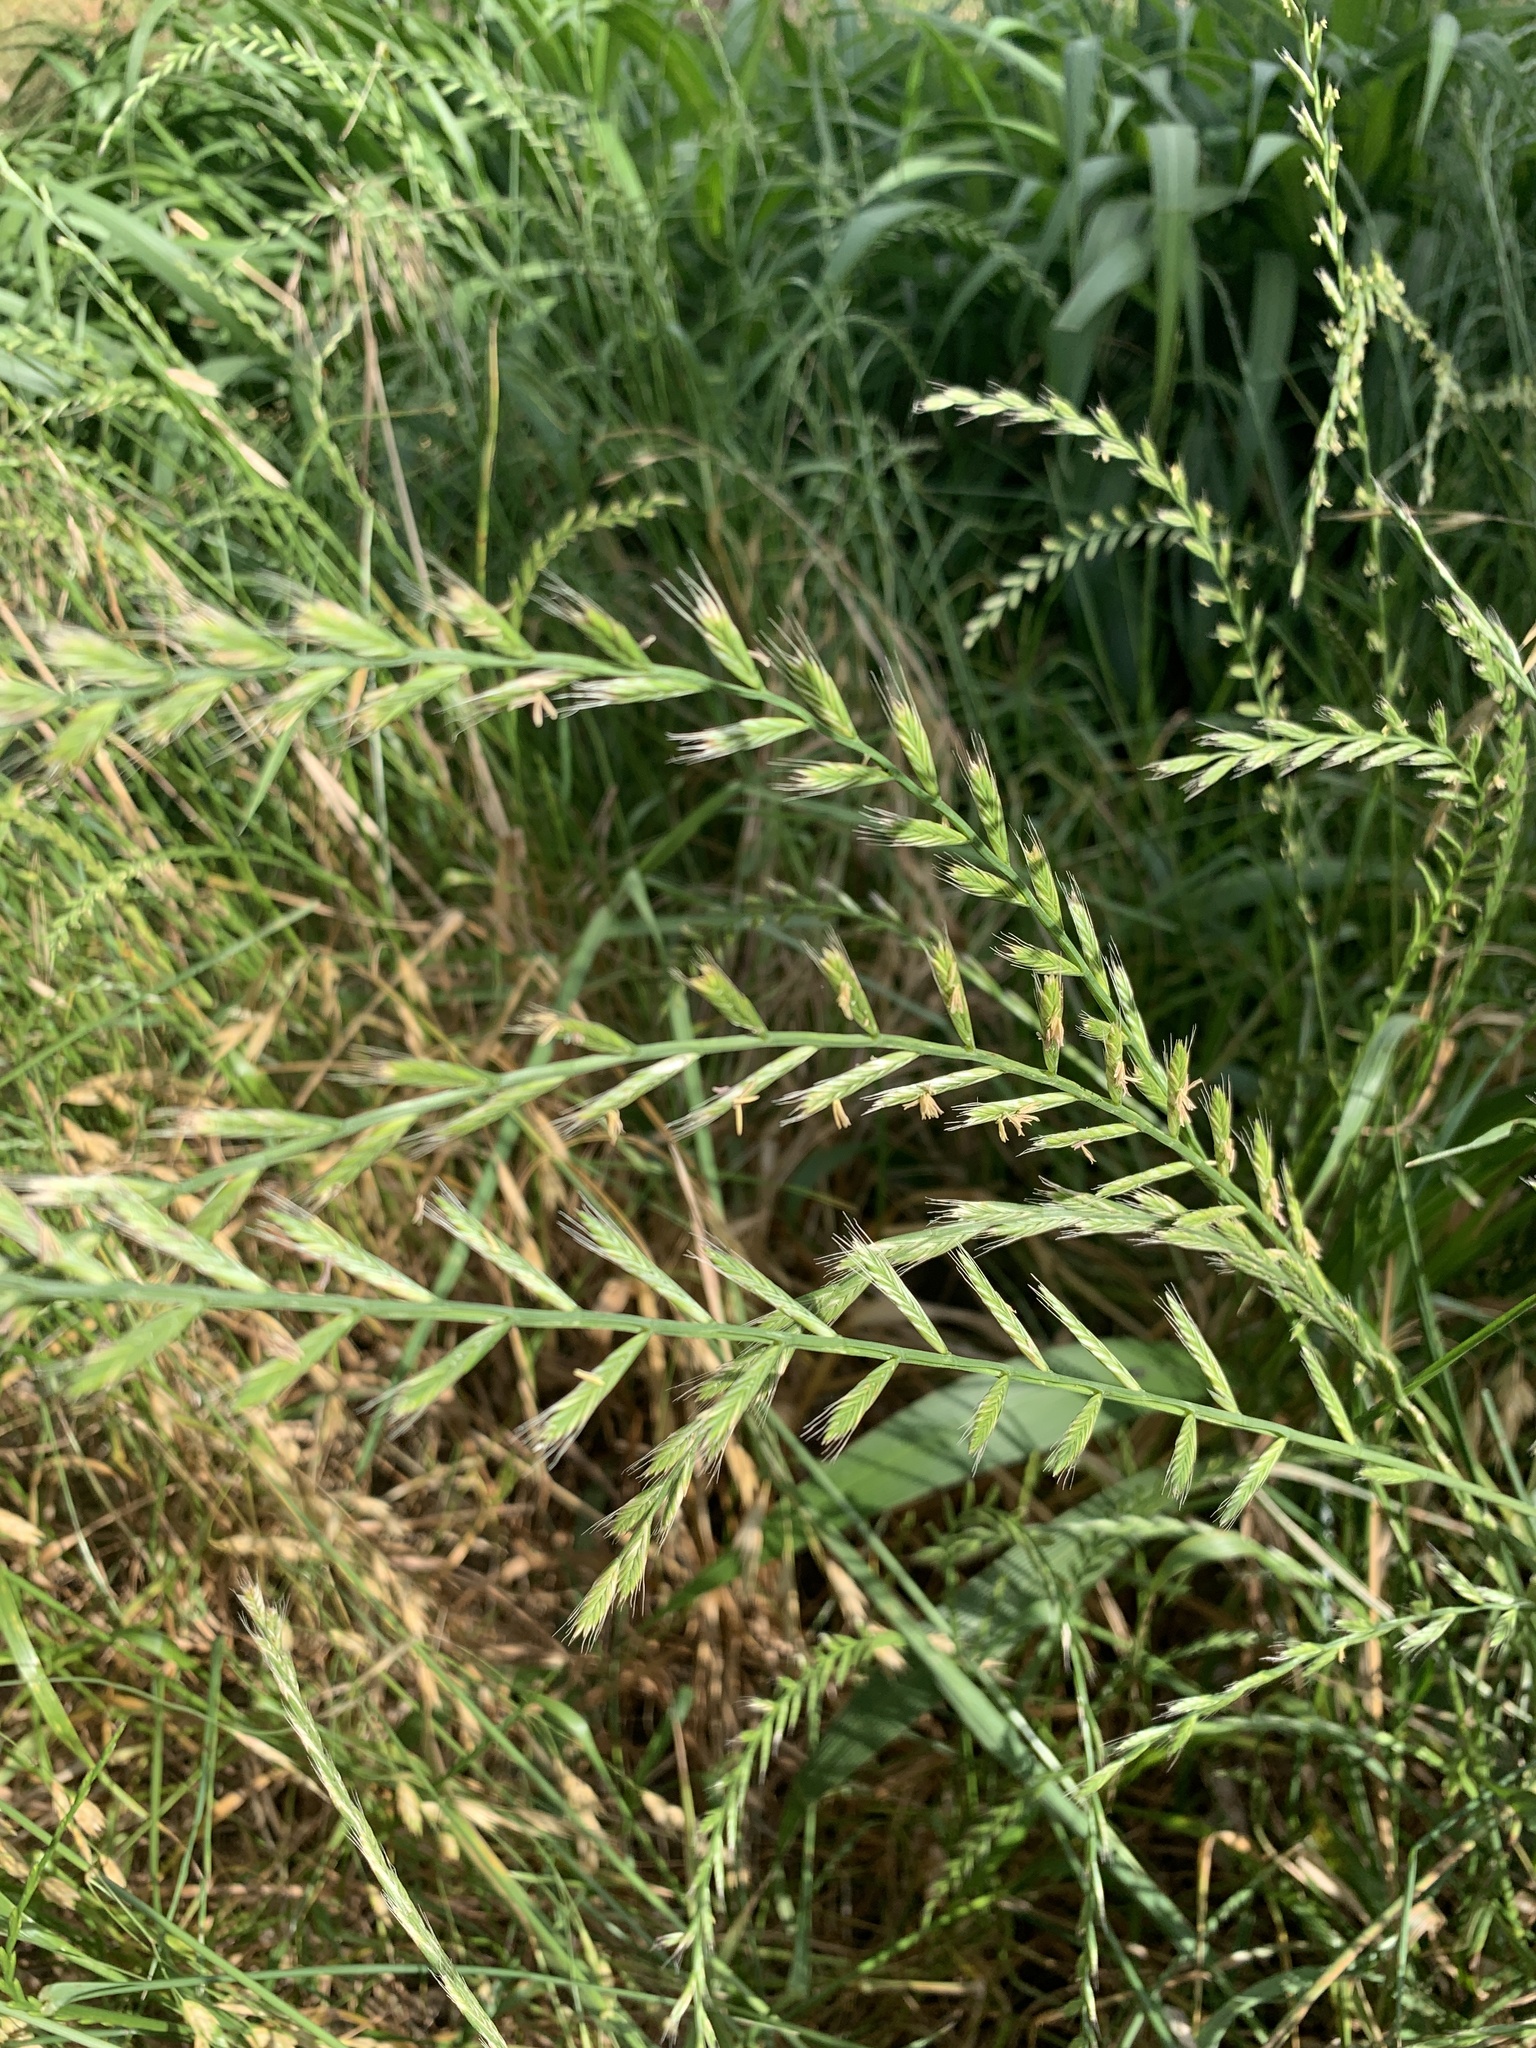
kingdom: Plantae
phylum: Tracheophyta
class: Liliopsida
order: Poales
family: Poaceae
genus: Lolium
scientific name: Lolium multiflorum
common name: Annual ryegrass
